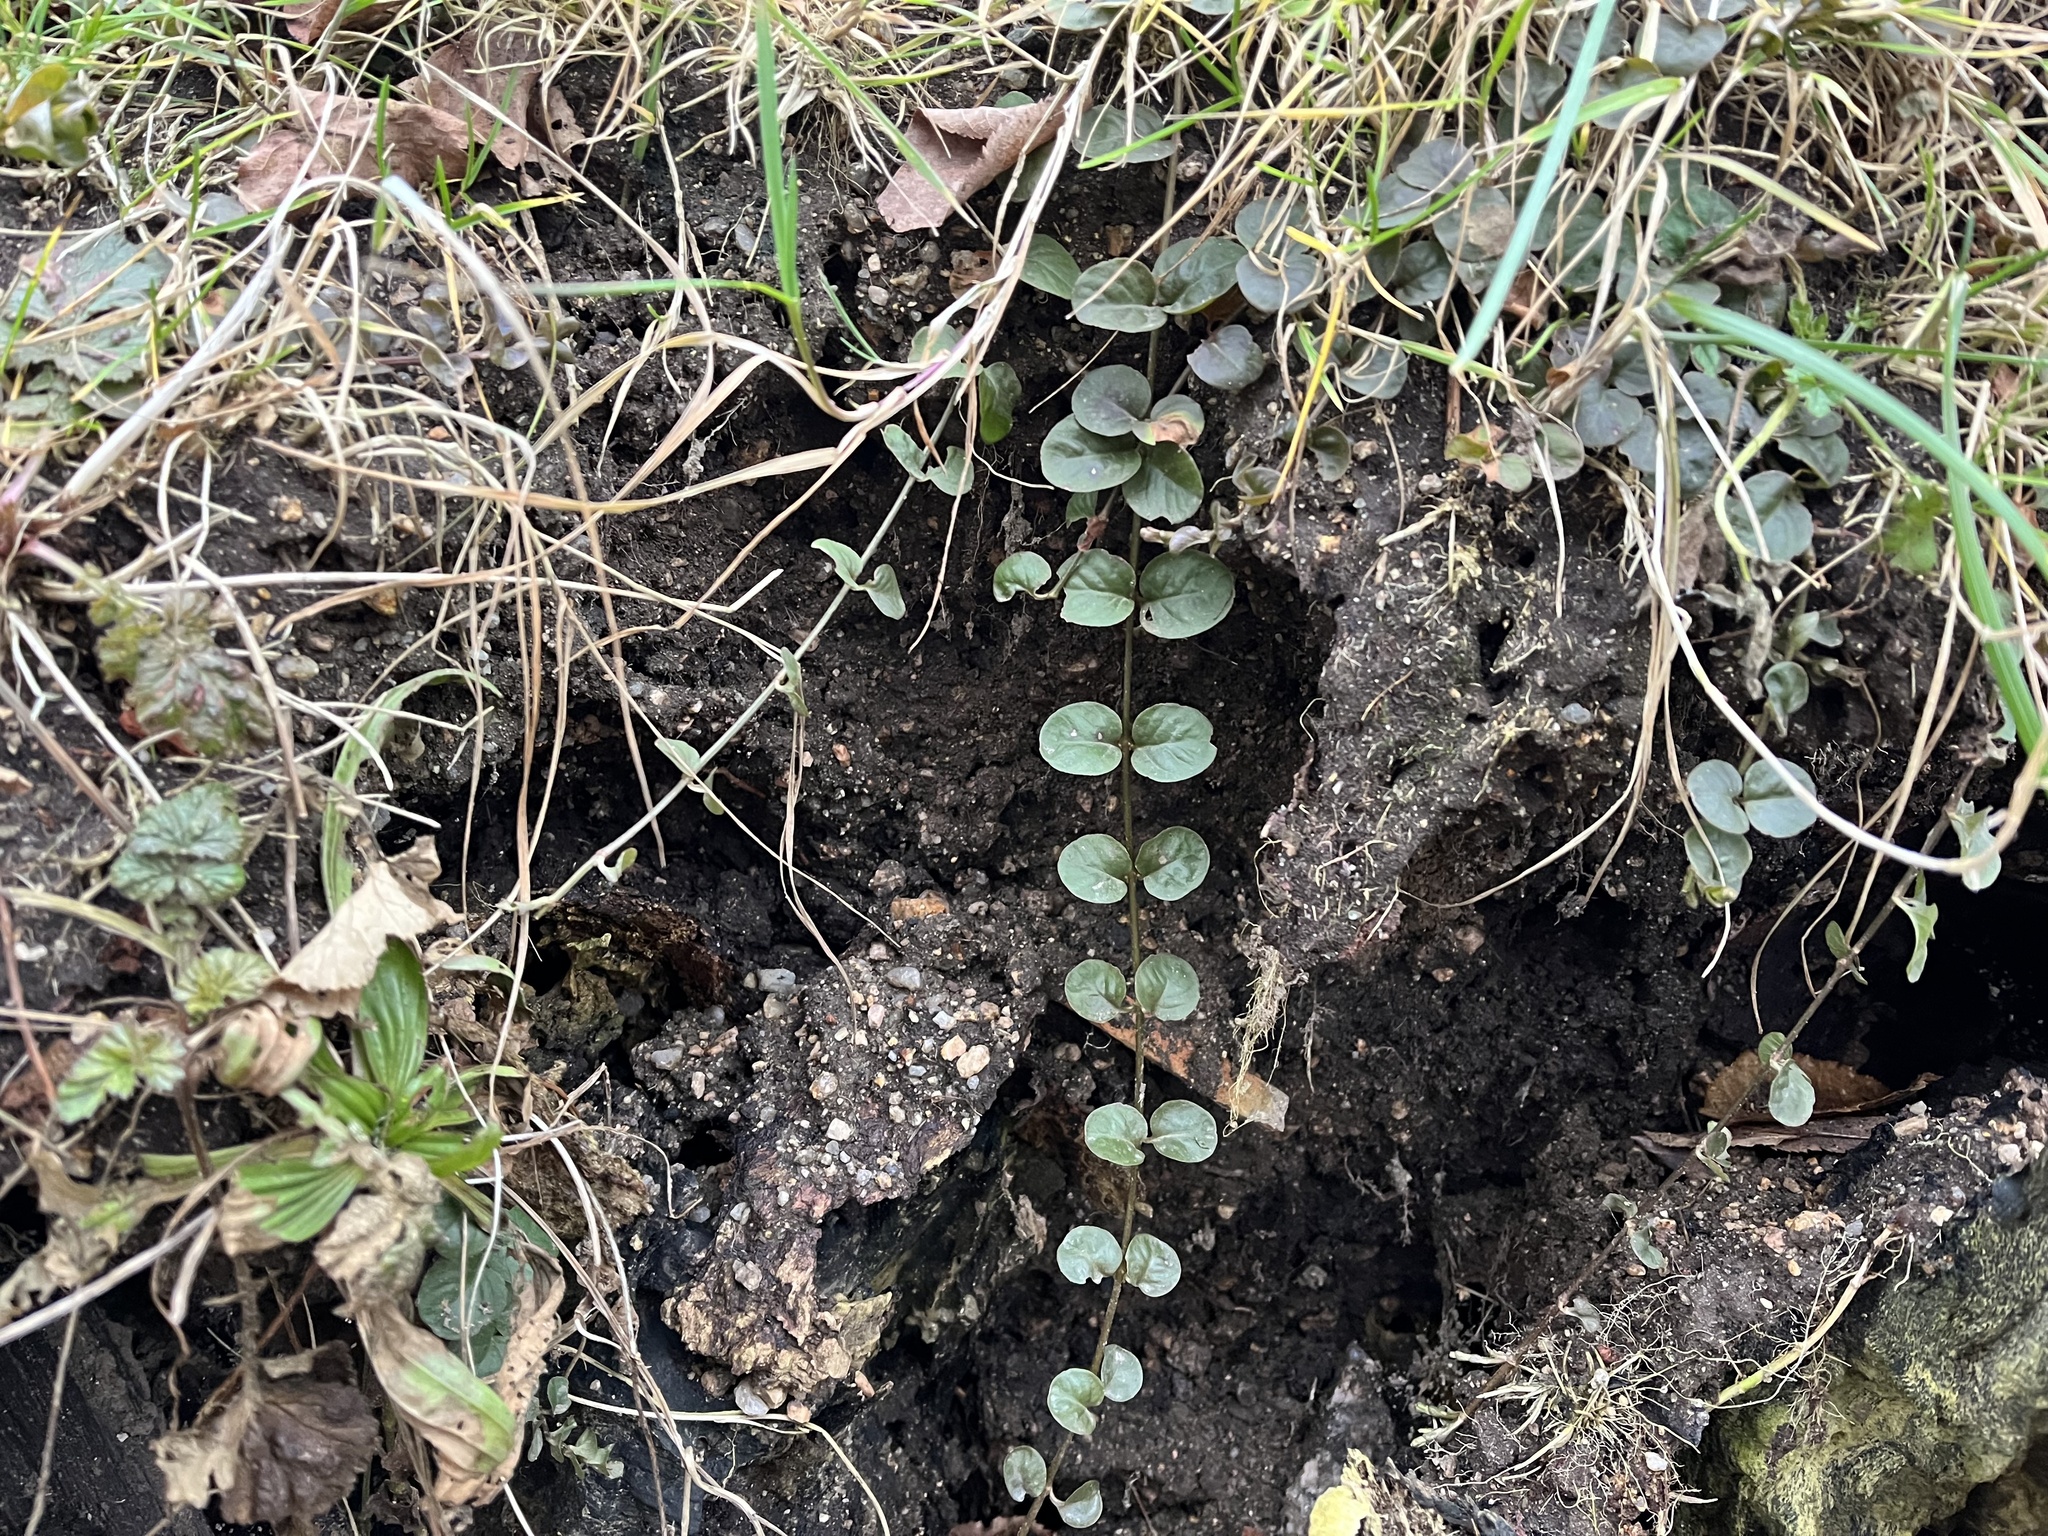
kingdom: Plantae
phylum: Tracheophyta
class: Magnoliopsida
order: Ericales
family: Primulaceae
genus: Lysimachia
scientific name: Lysimachia nummularia
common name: Moneywort
